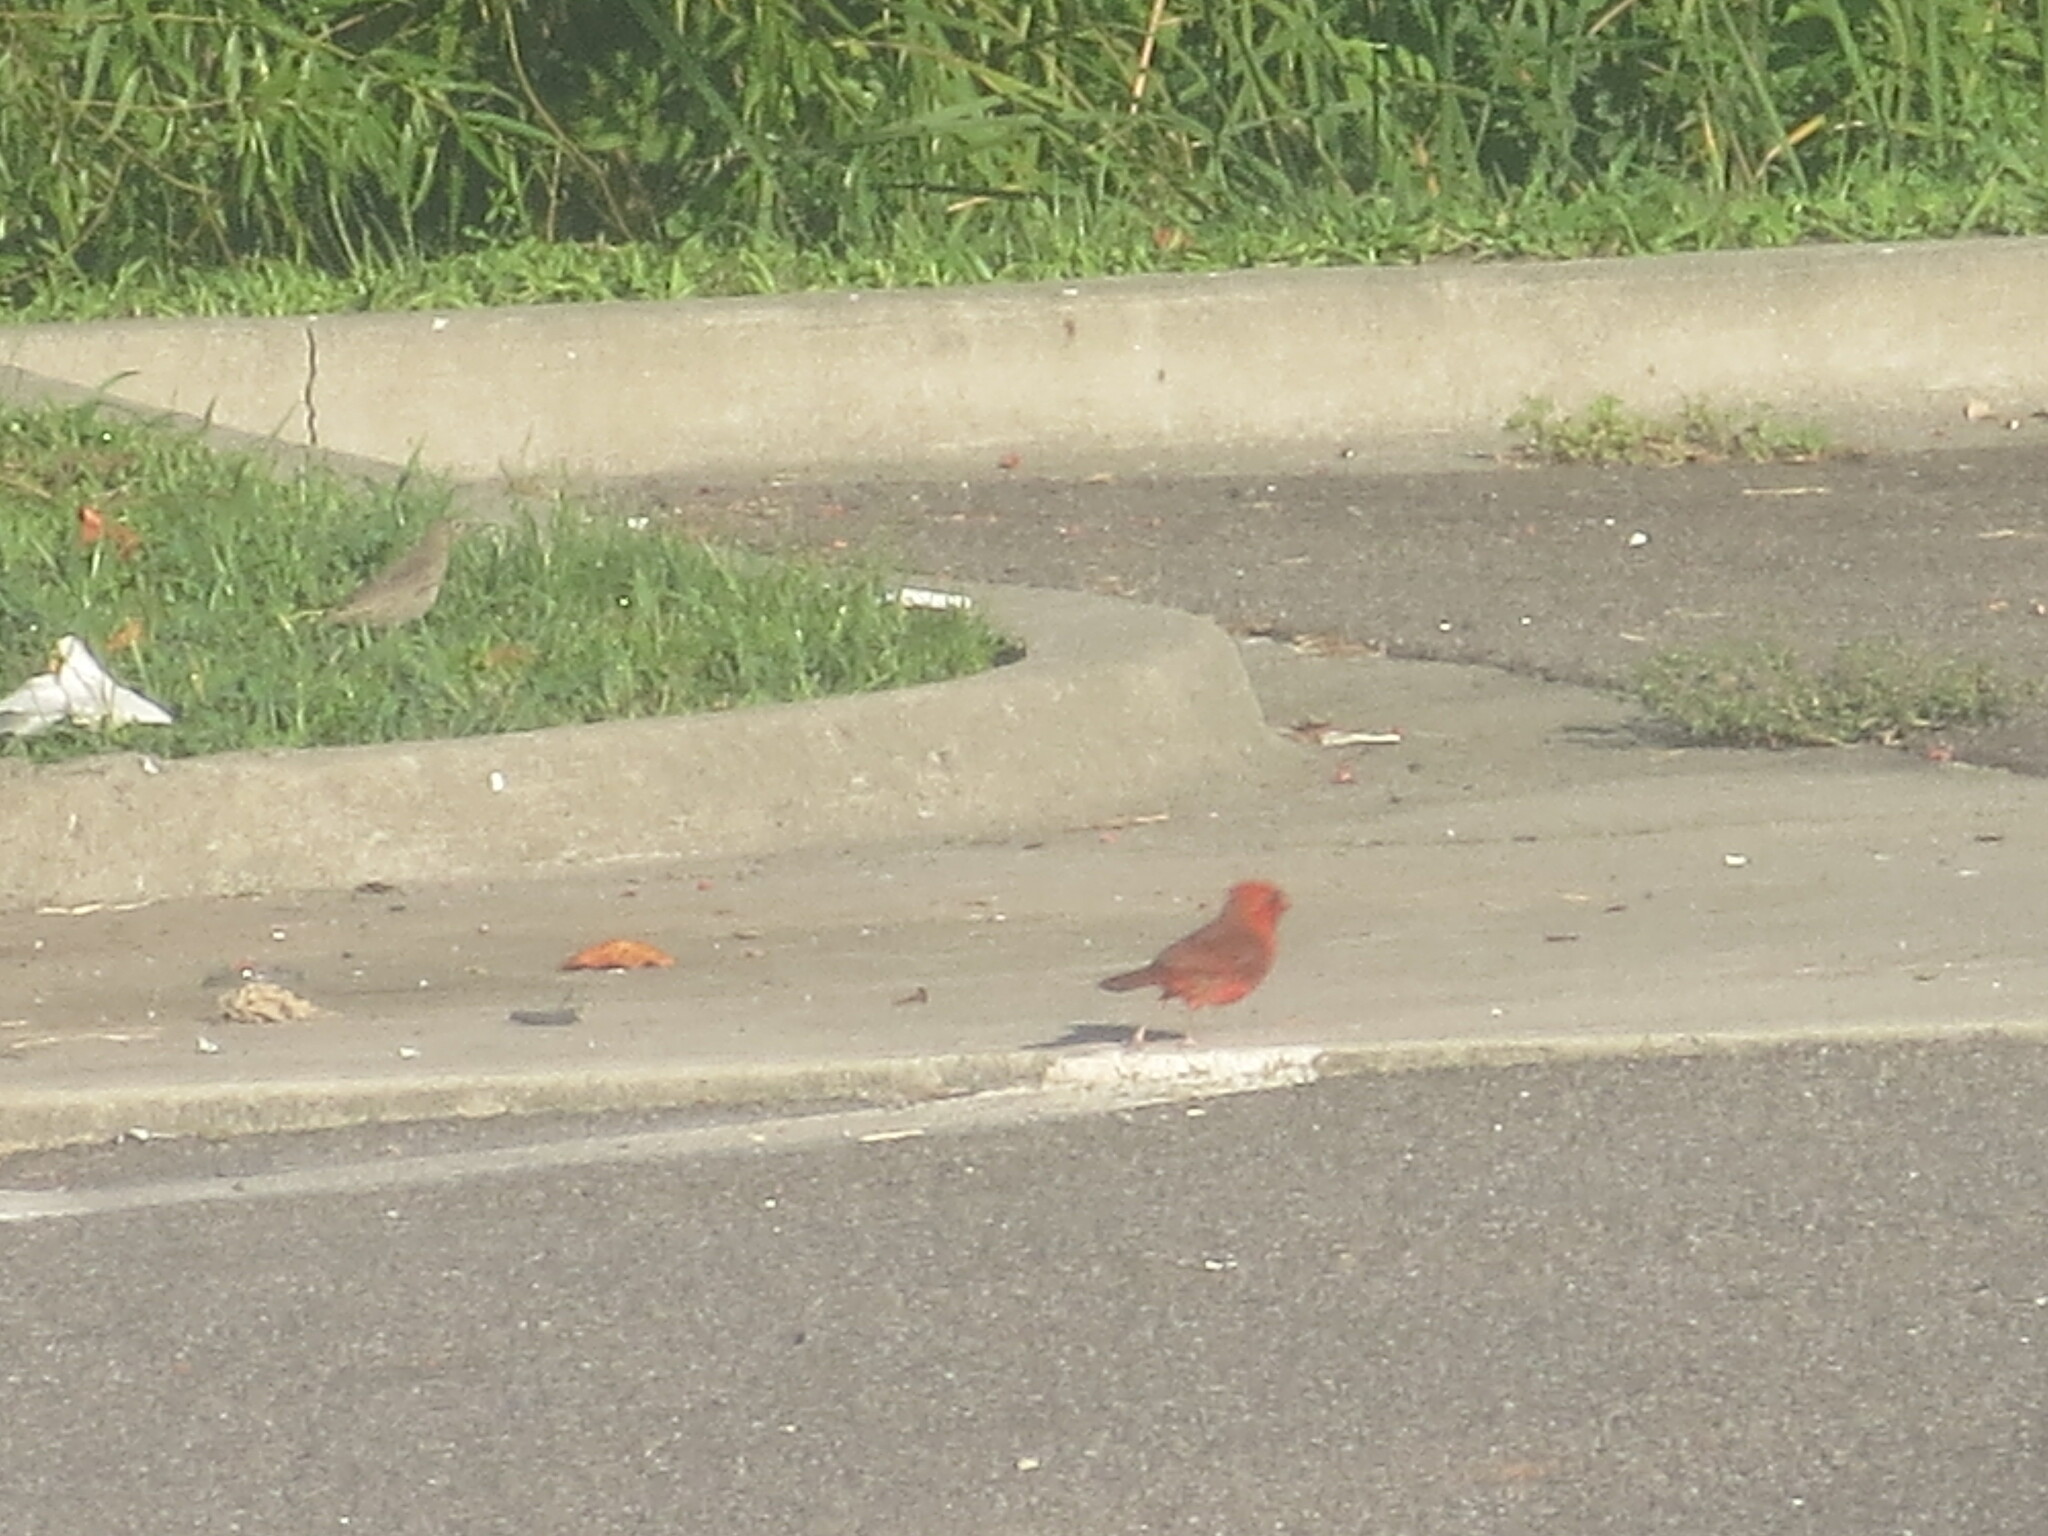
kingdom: Animalia
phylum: Chordata
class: Aves
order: Passeriformes
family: Cardinalidae
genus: Cardinalis
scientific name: Cardinalis cardinalis
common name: Northern cardinal
